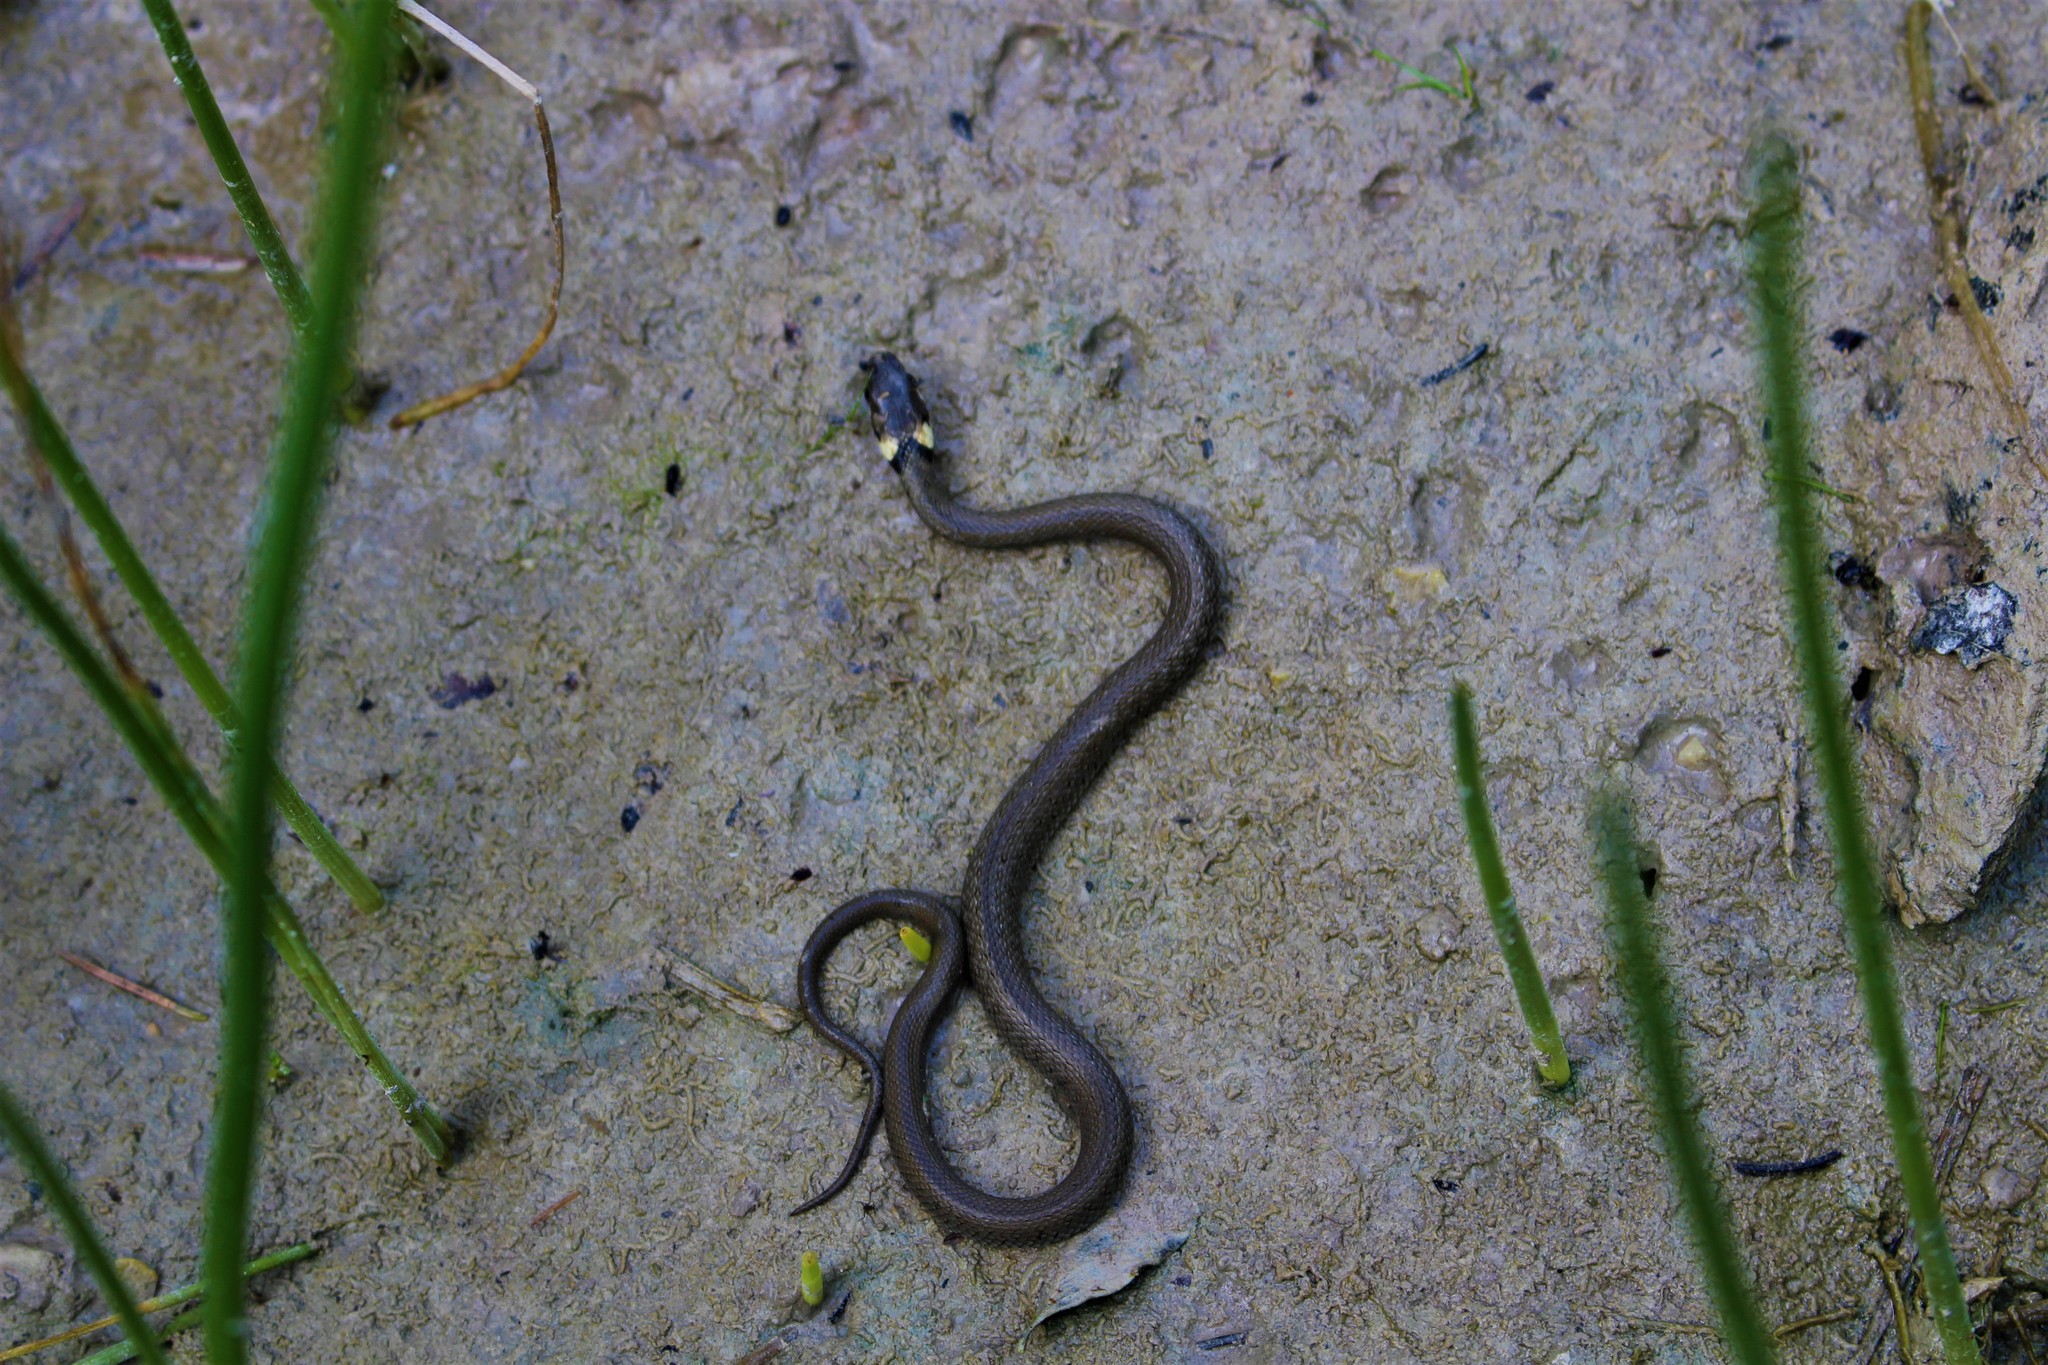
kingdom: Animalia
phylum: Chordata
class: Squamata
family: Colubridae
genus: Natrix
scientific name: Natrix natrix
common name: Grass snake
